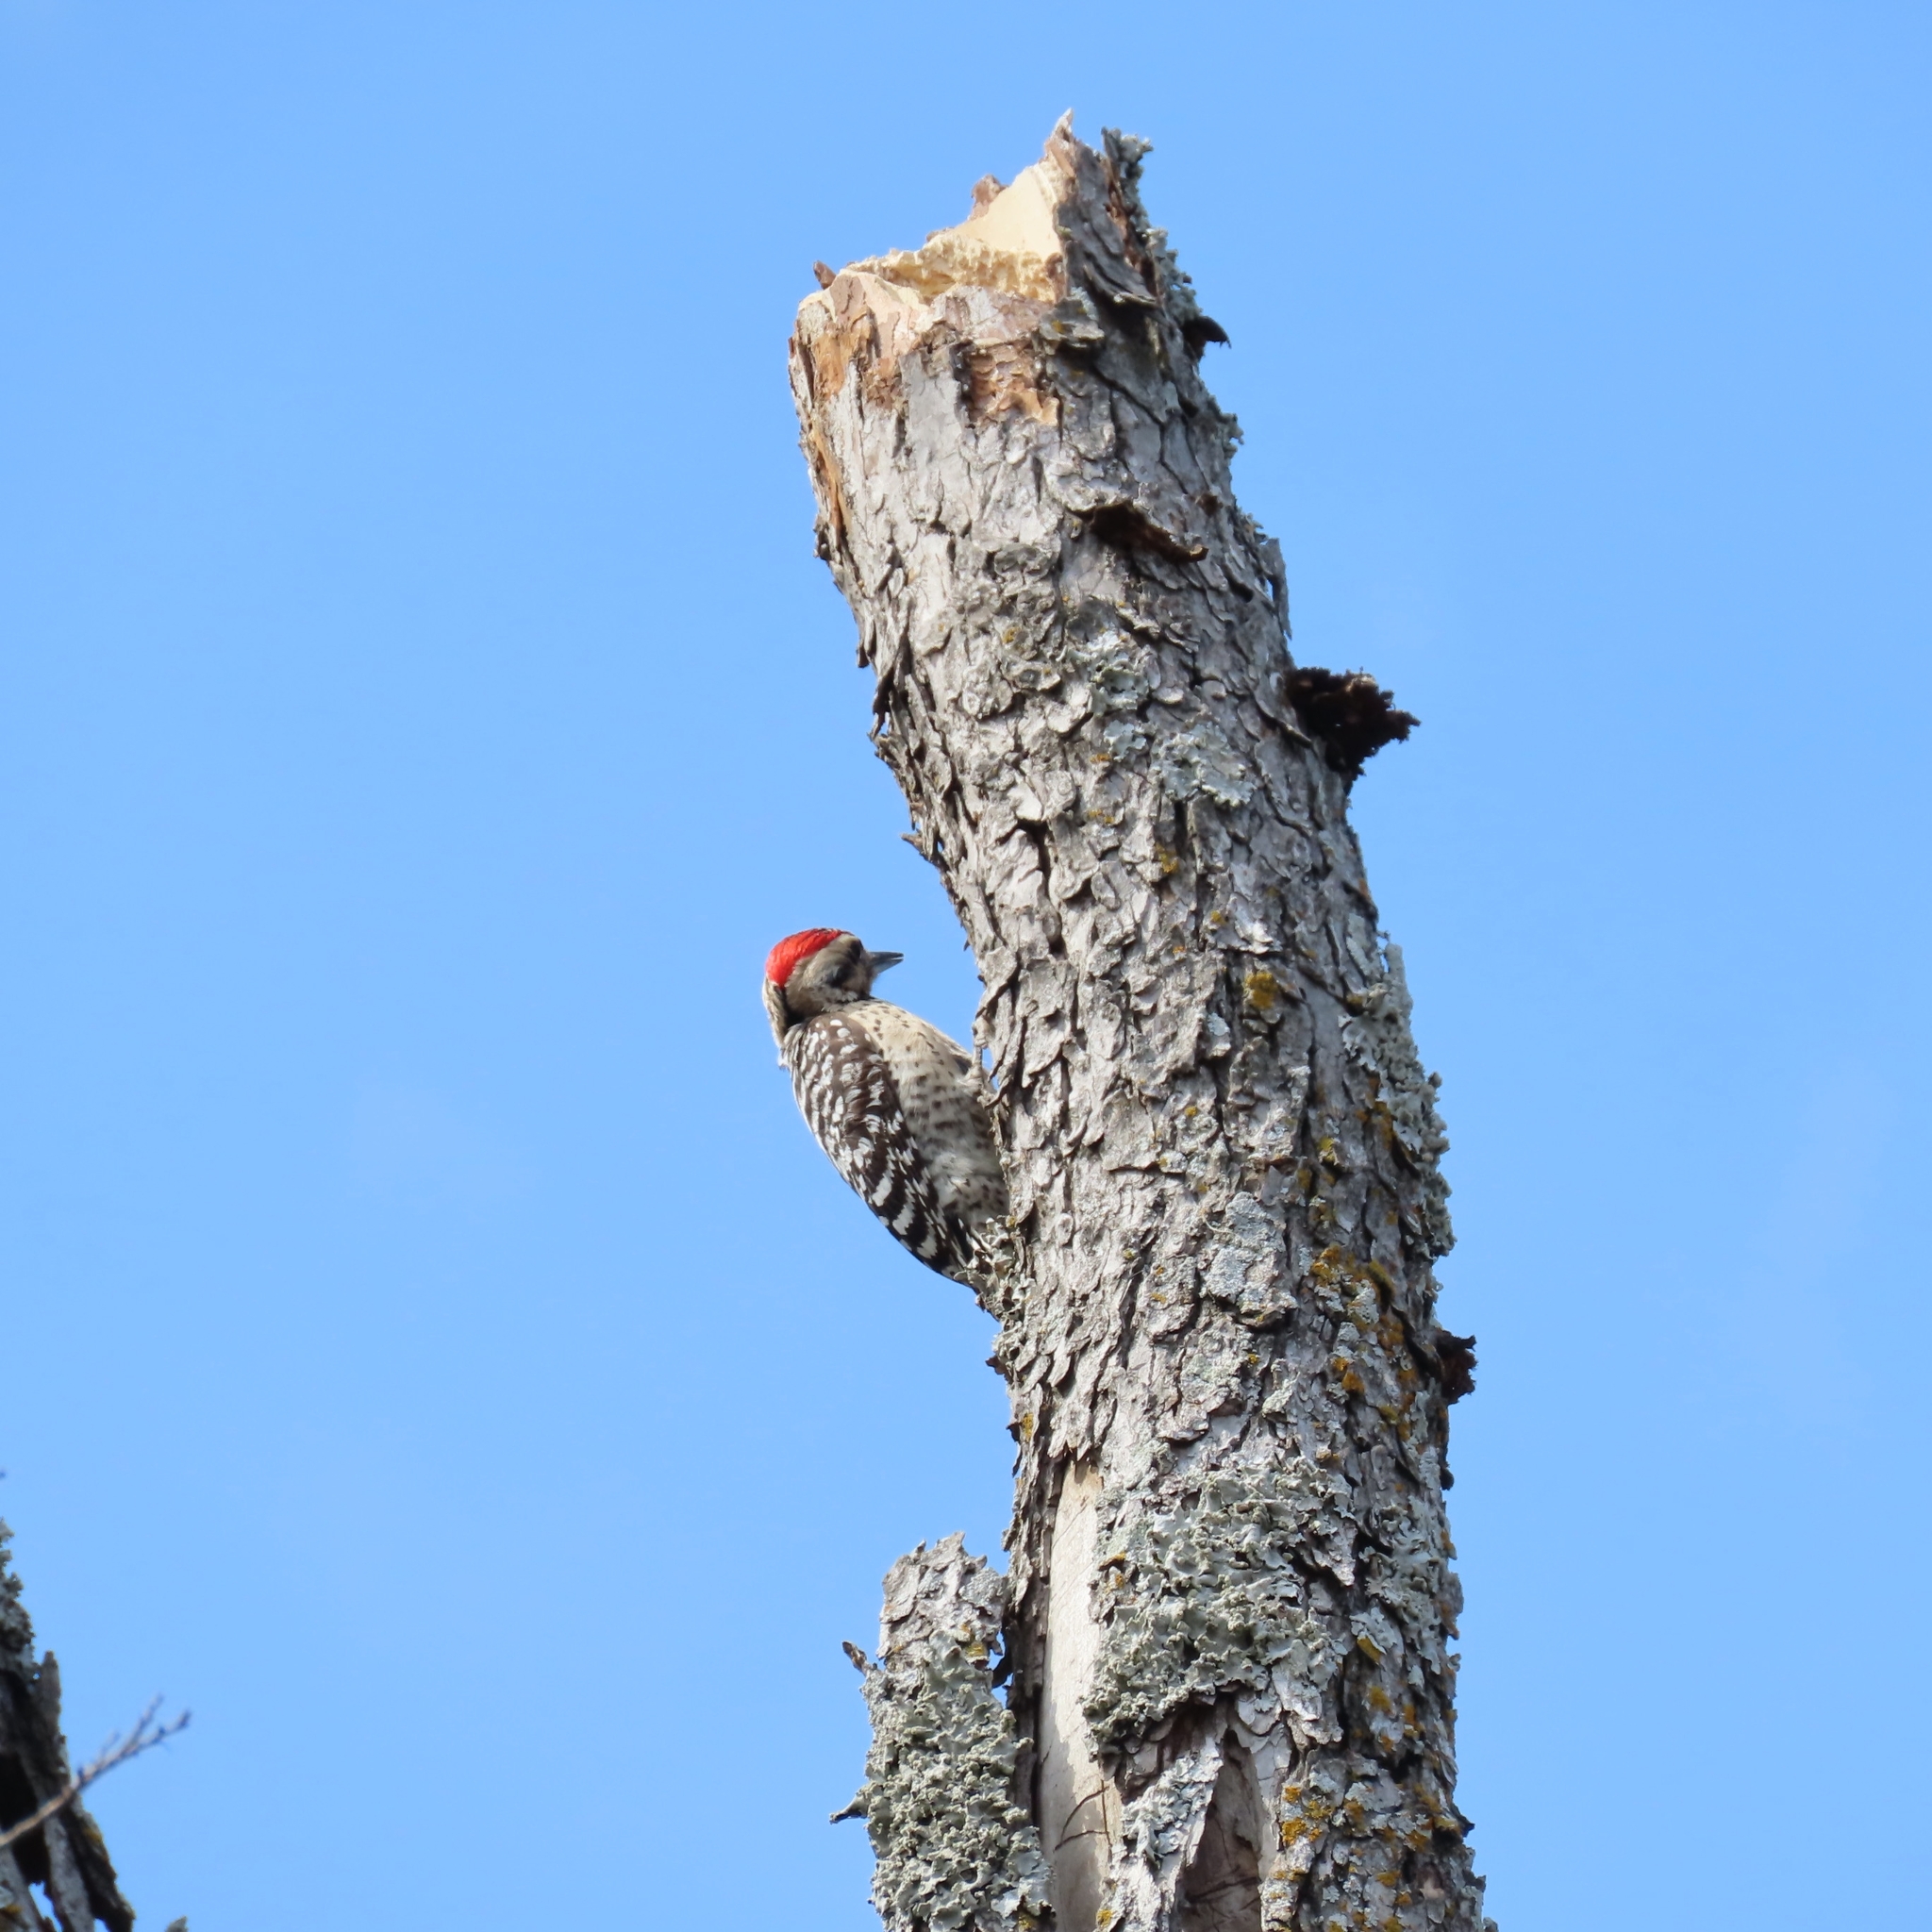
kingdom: Animalia
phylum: Chordata
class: Aves
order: Piciformes
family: Picidae
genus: Dryobates
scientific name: Dryobates scalaris
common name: Ladder-backed woodpecker
